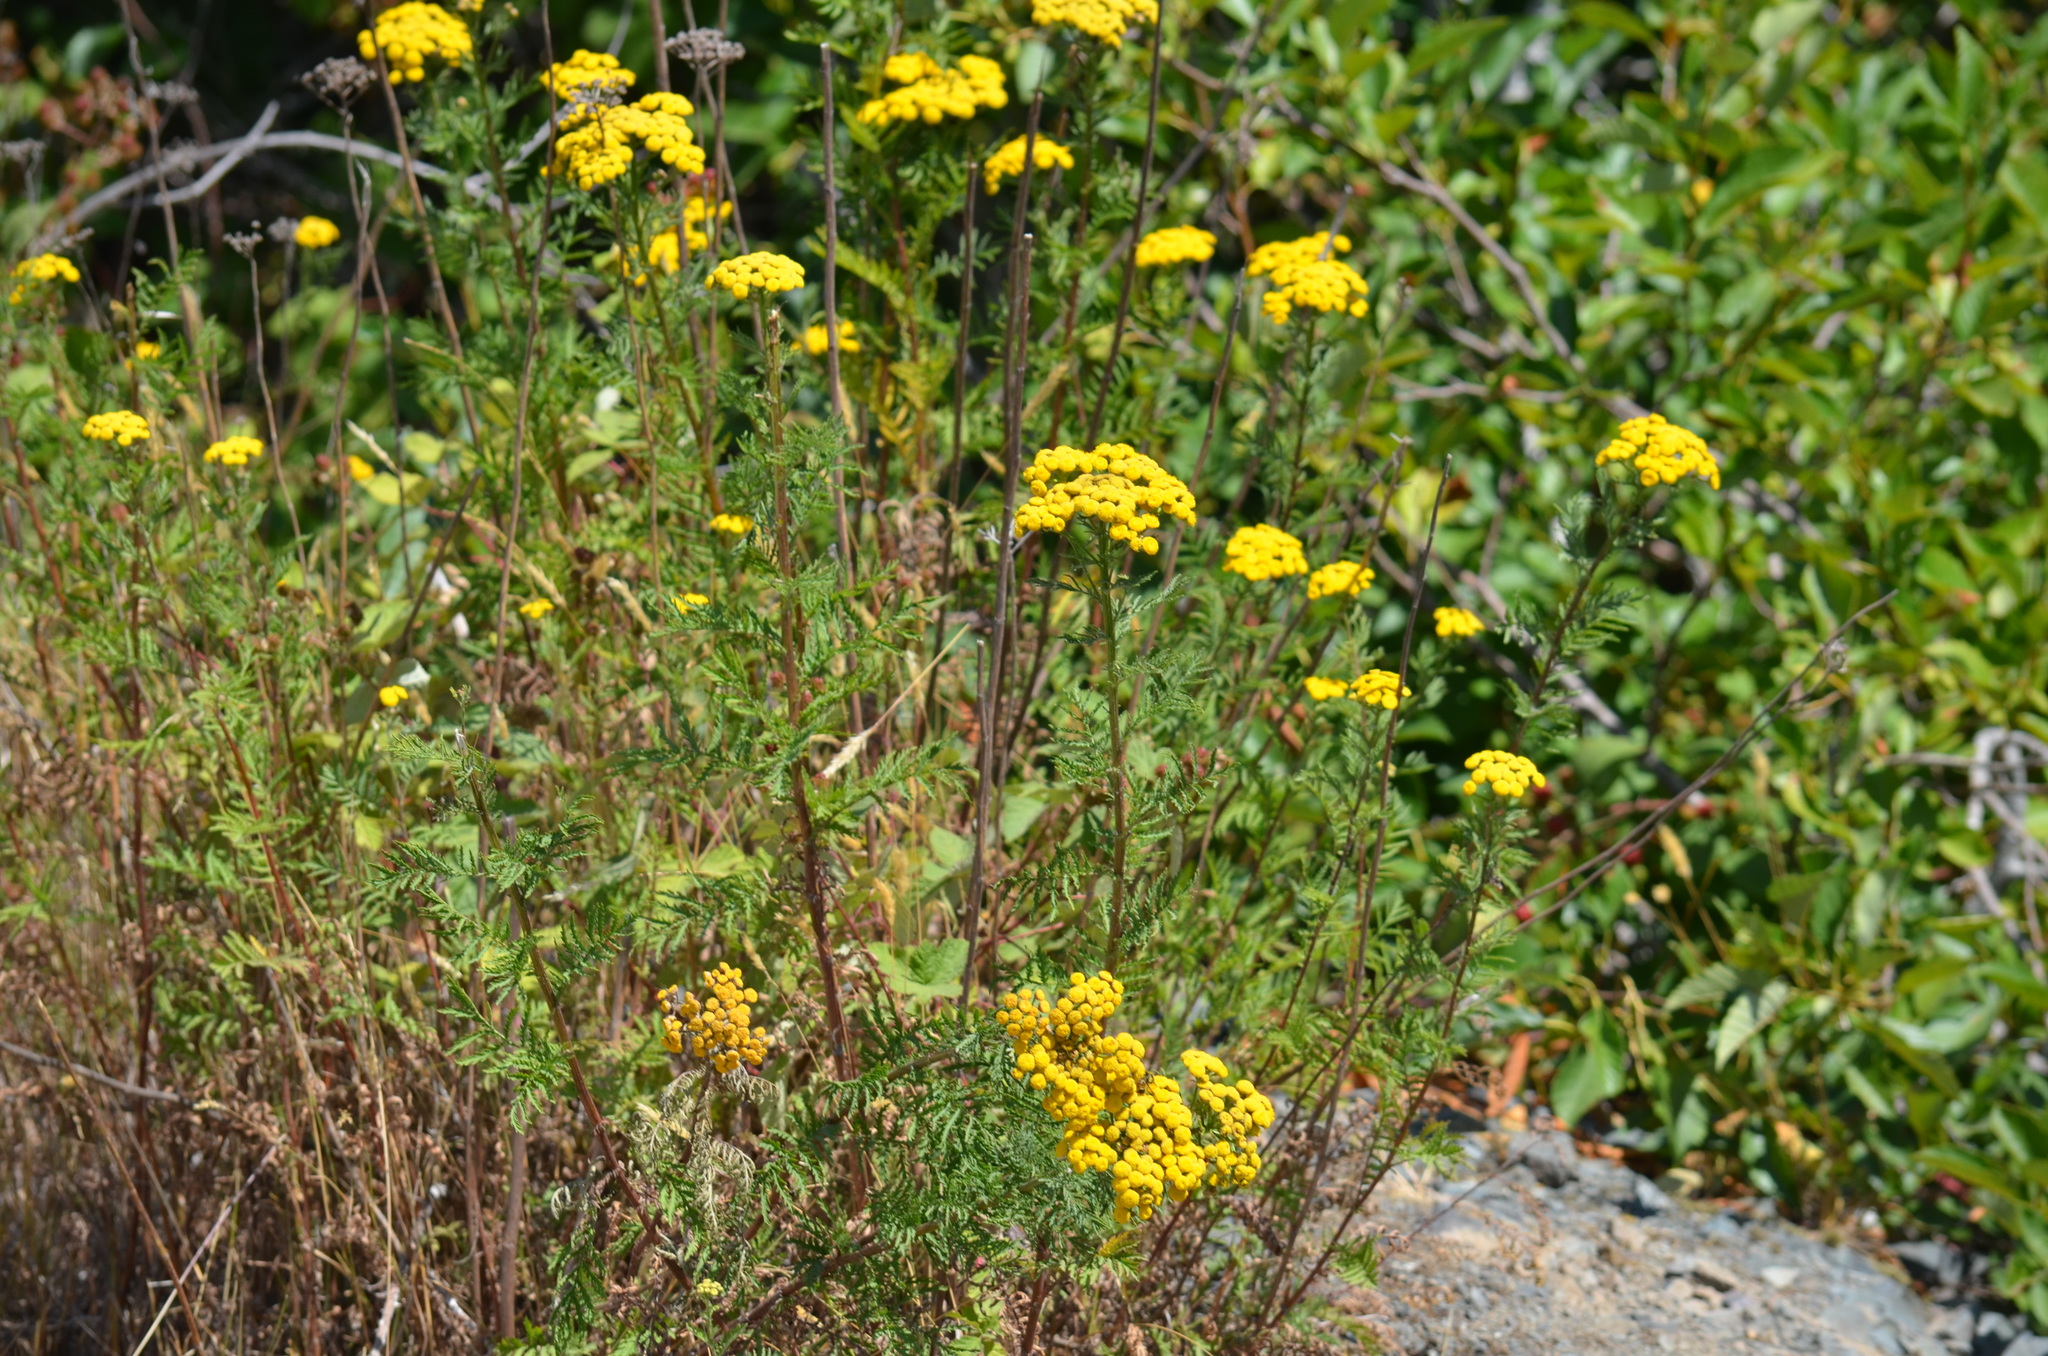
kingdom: Plantae
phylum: Tracheophyta
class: Magnoliopsida
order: Asterales
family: Asteraceae
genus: Tanacetum
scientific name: Tanacetum vulgare
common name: Common tansy
